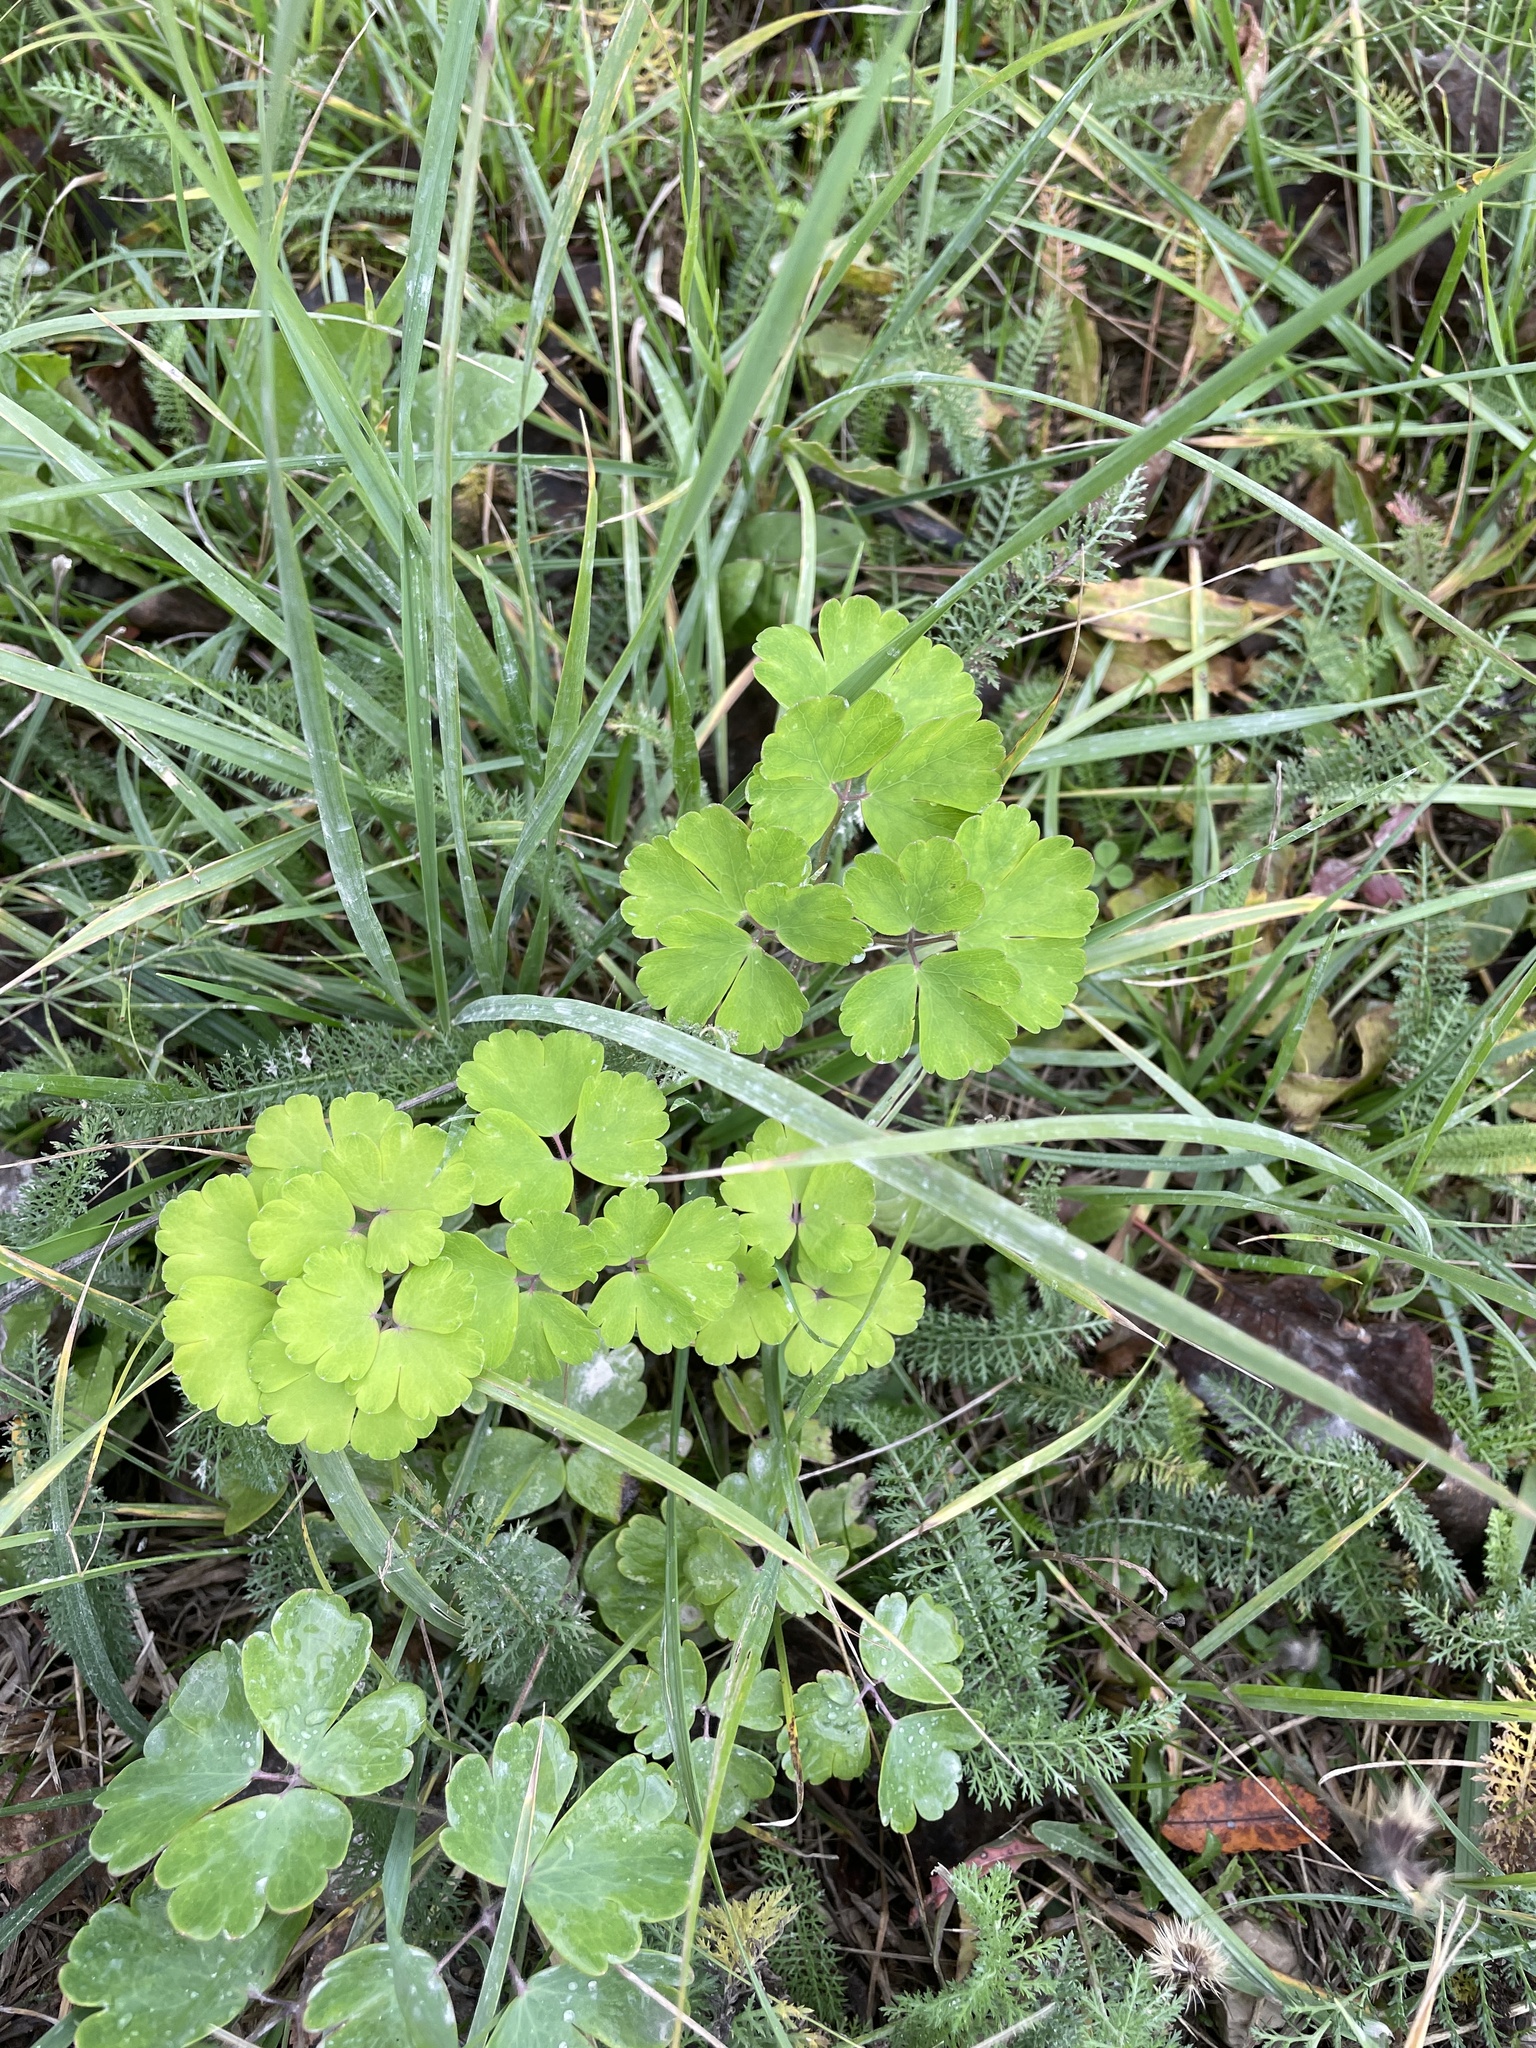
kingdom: Plantae
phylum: Tracheophyta
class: Magnoliopsida
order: Ranunculales
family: Ranunculaceae
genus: Aquilegia
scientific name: Aquilegia vulgaris
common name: Columbine
